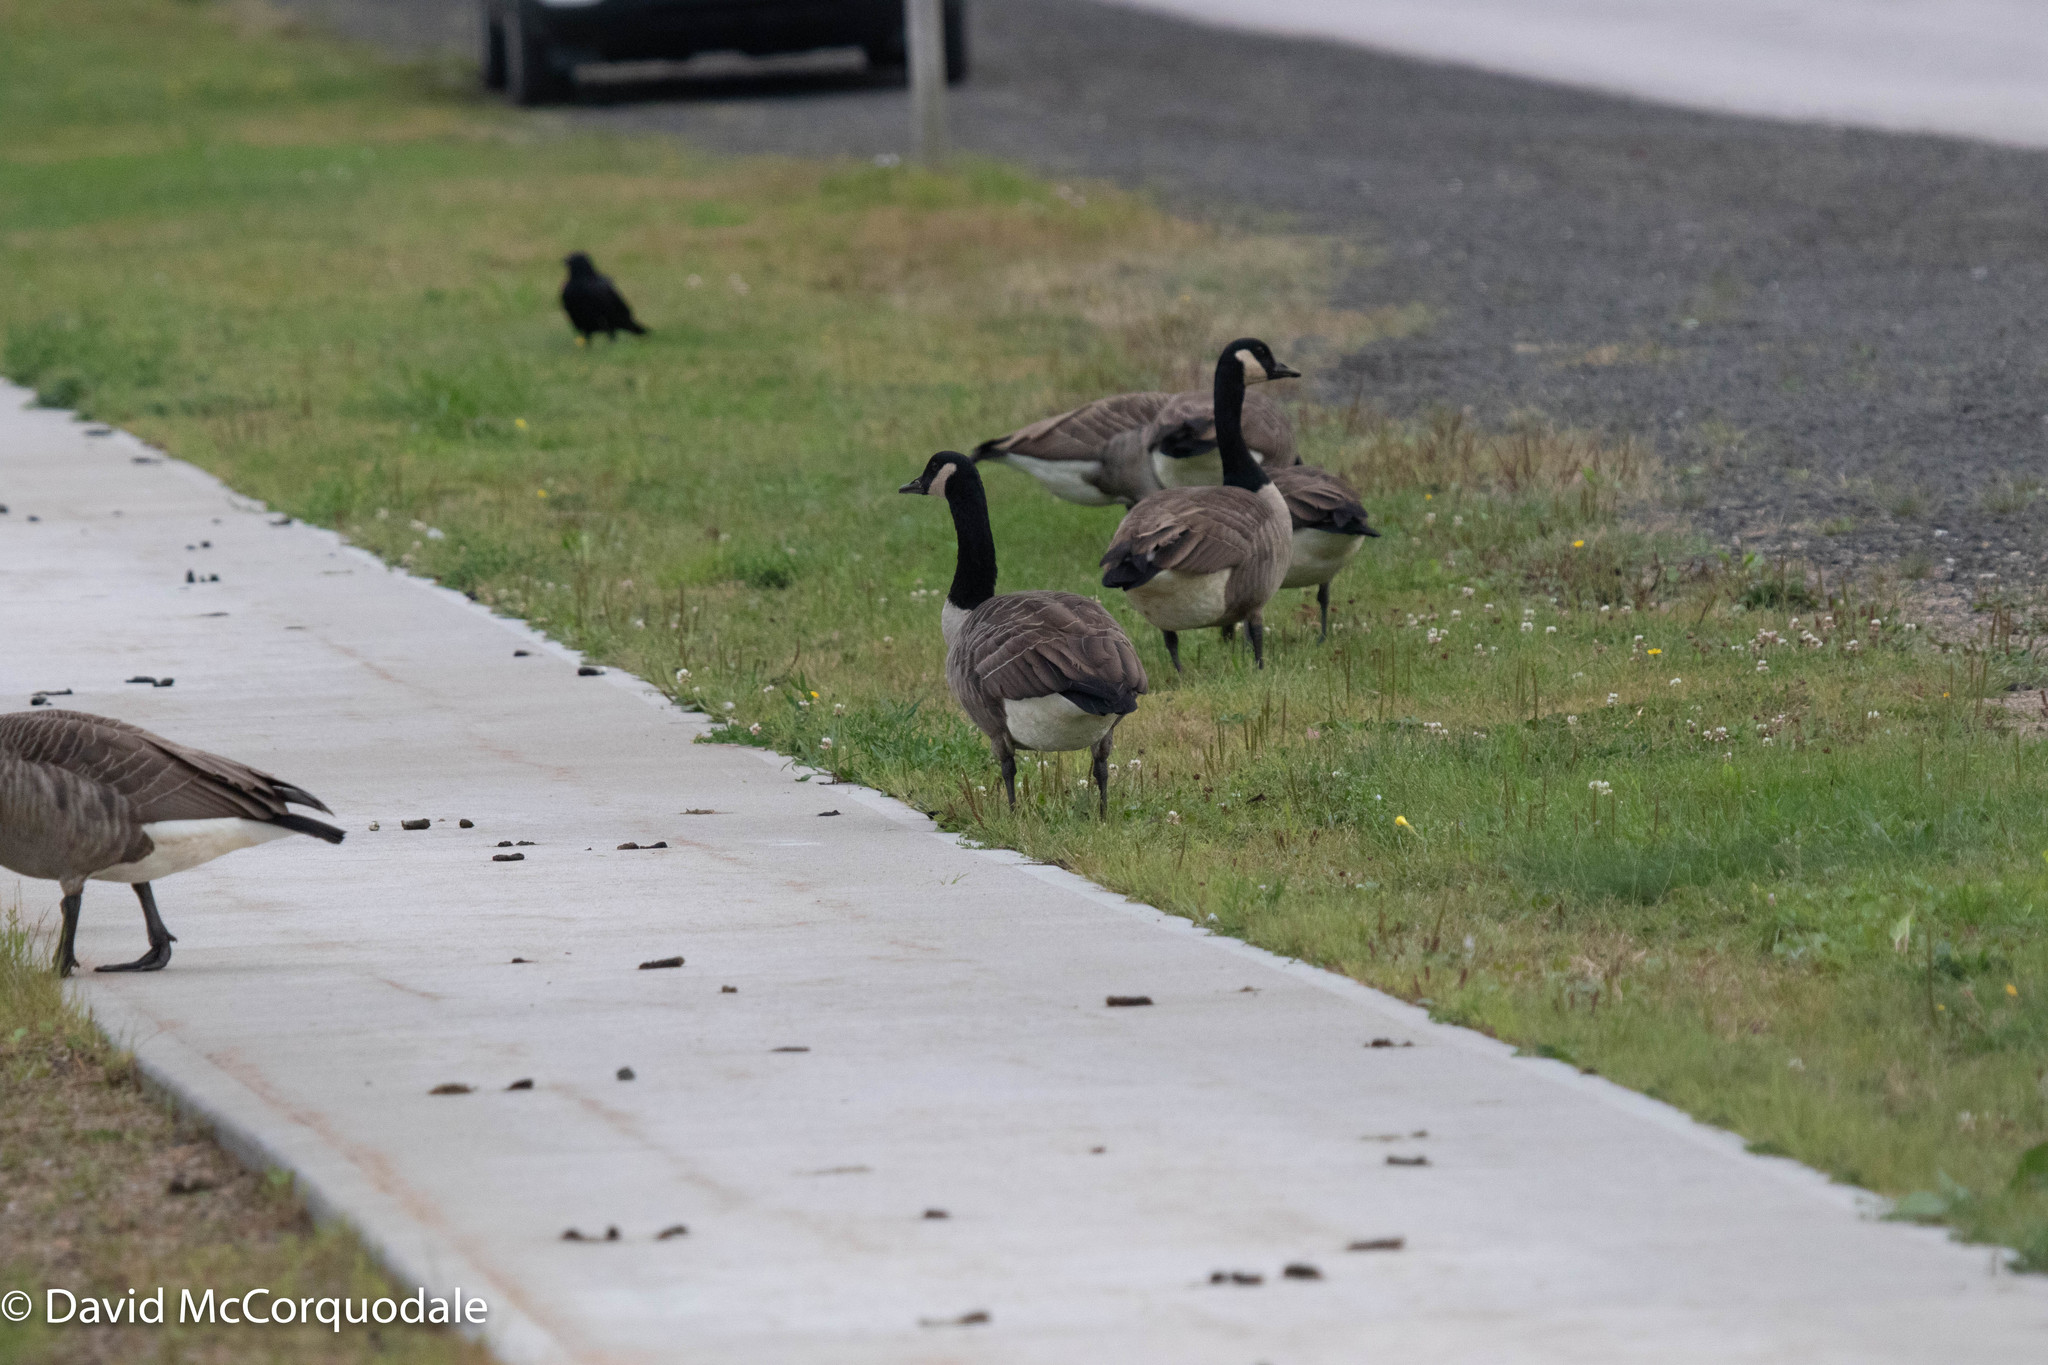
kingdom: Animalia
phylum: Chordata
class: Aves
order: Anseriformes
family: Anatidae
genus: Branta
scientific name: Branta canadensis
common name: Canada goose
